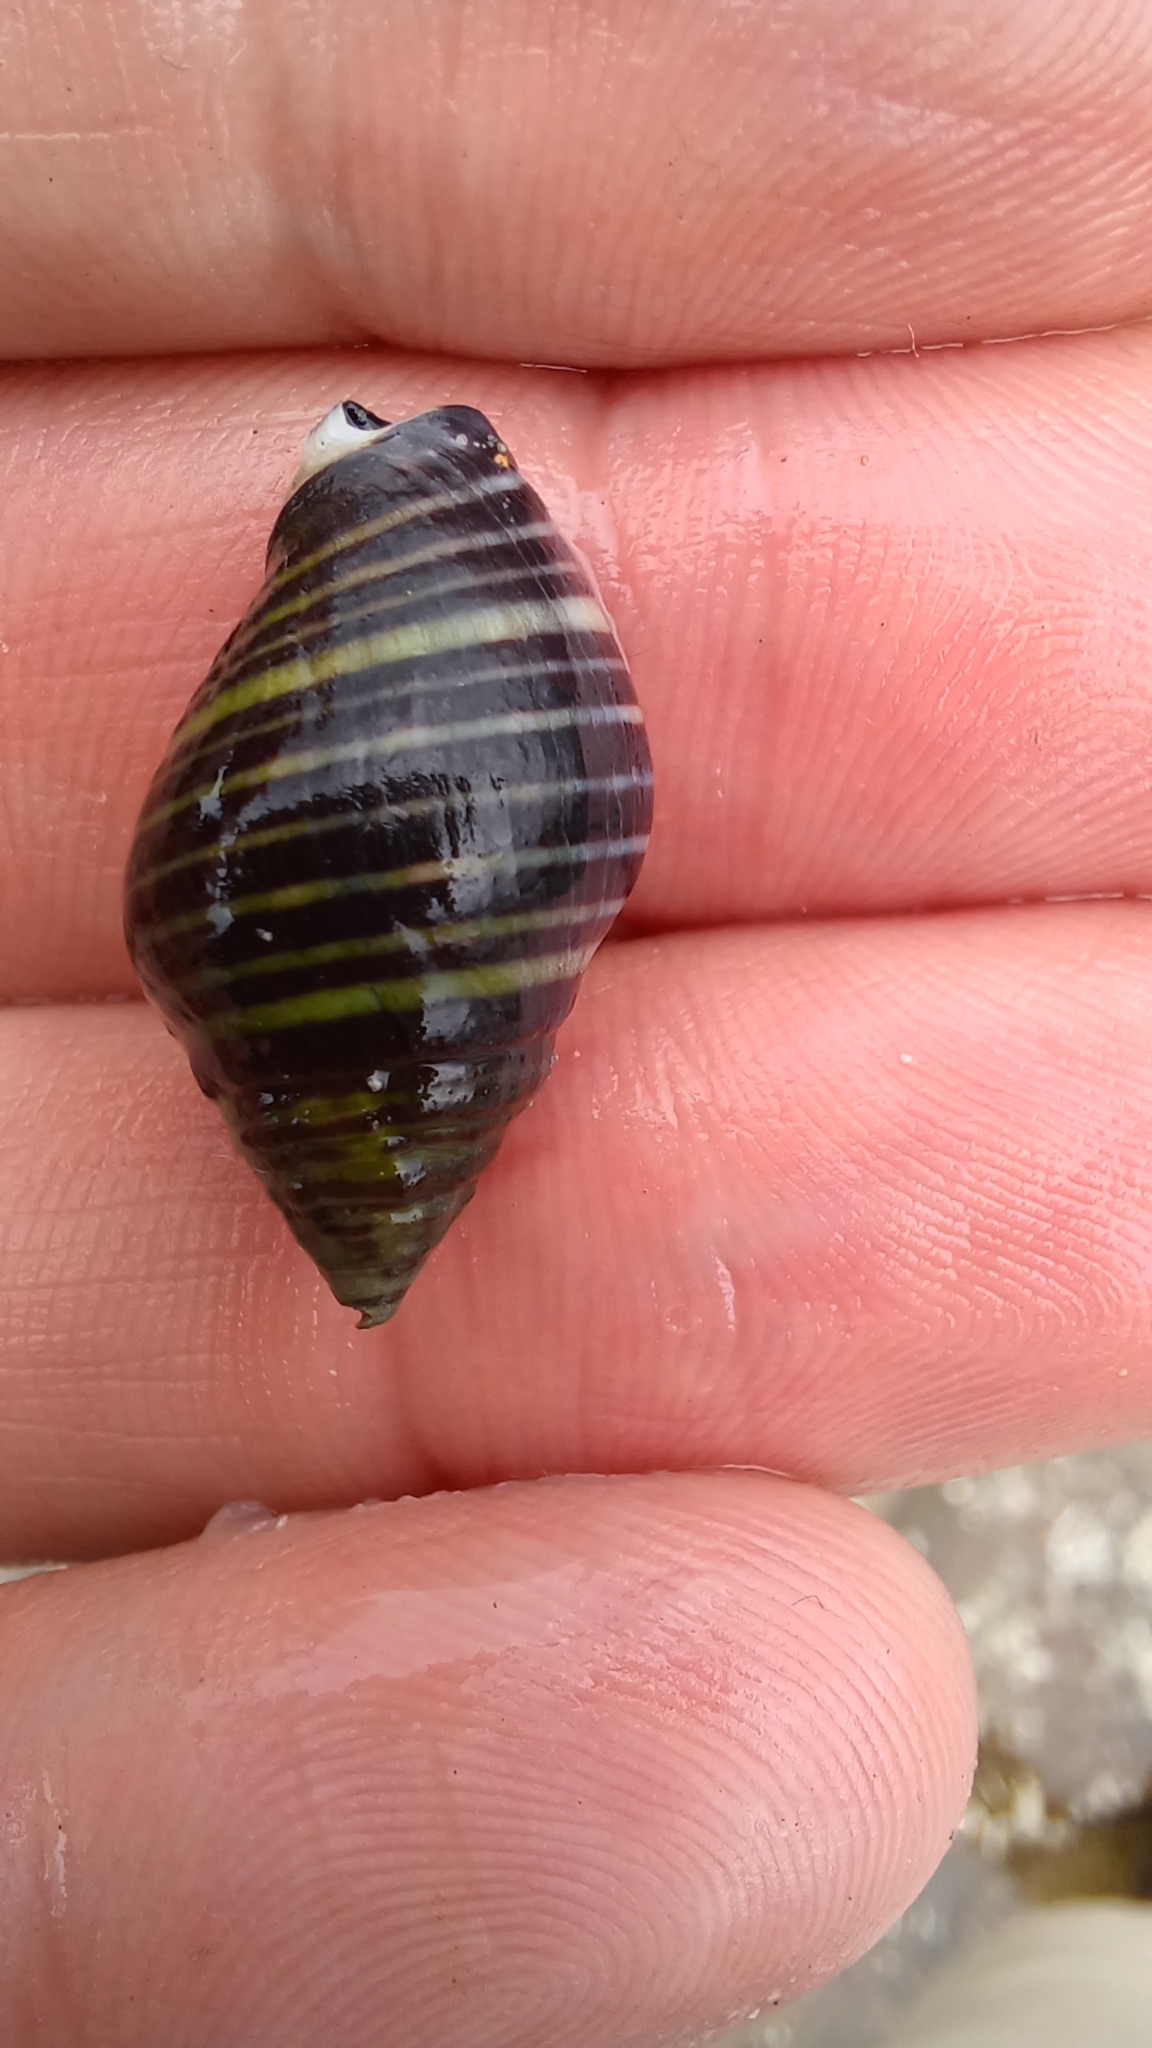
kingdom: Animalia
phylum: Mollusca
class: Gastropoda
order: Neogastropoda
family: Cominellidae
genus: Cominella
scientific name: Cominella lineolata
